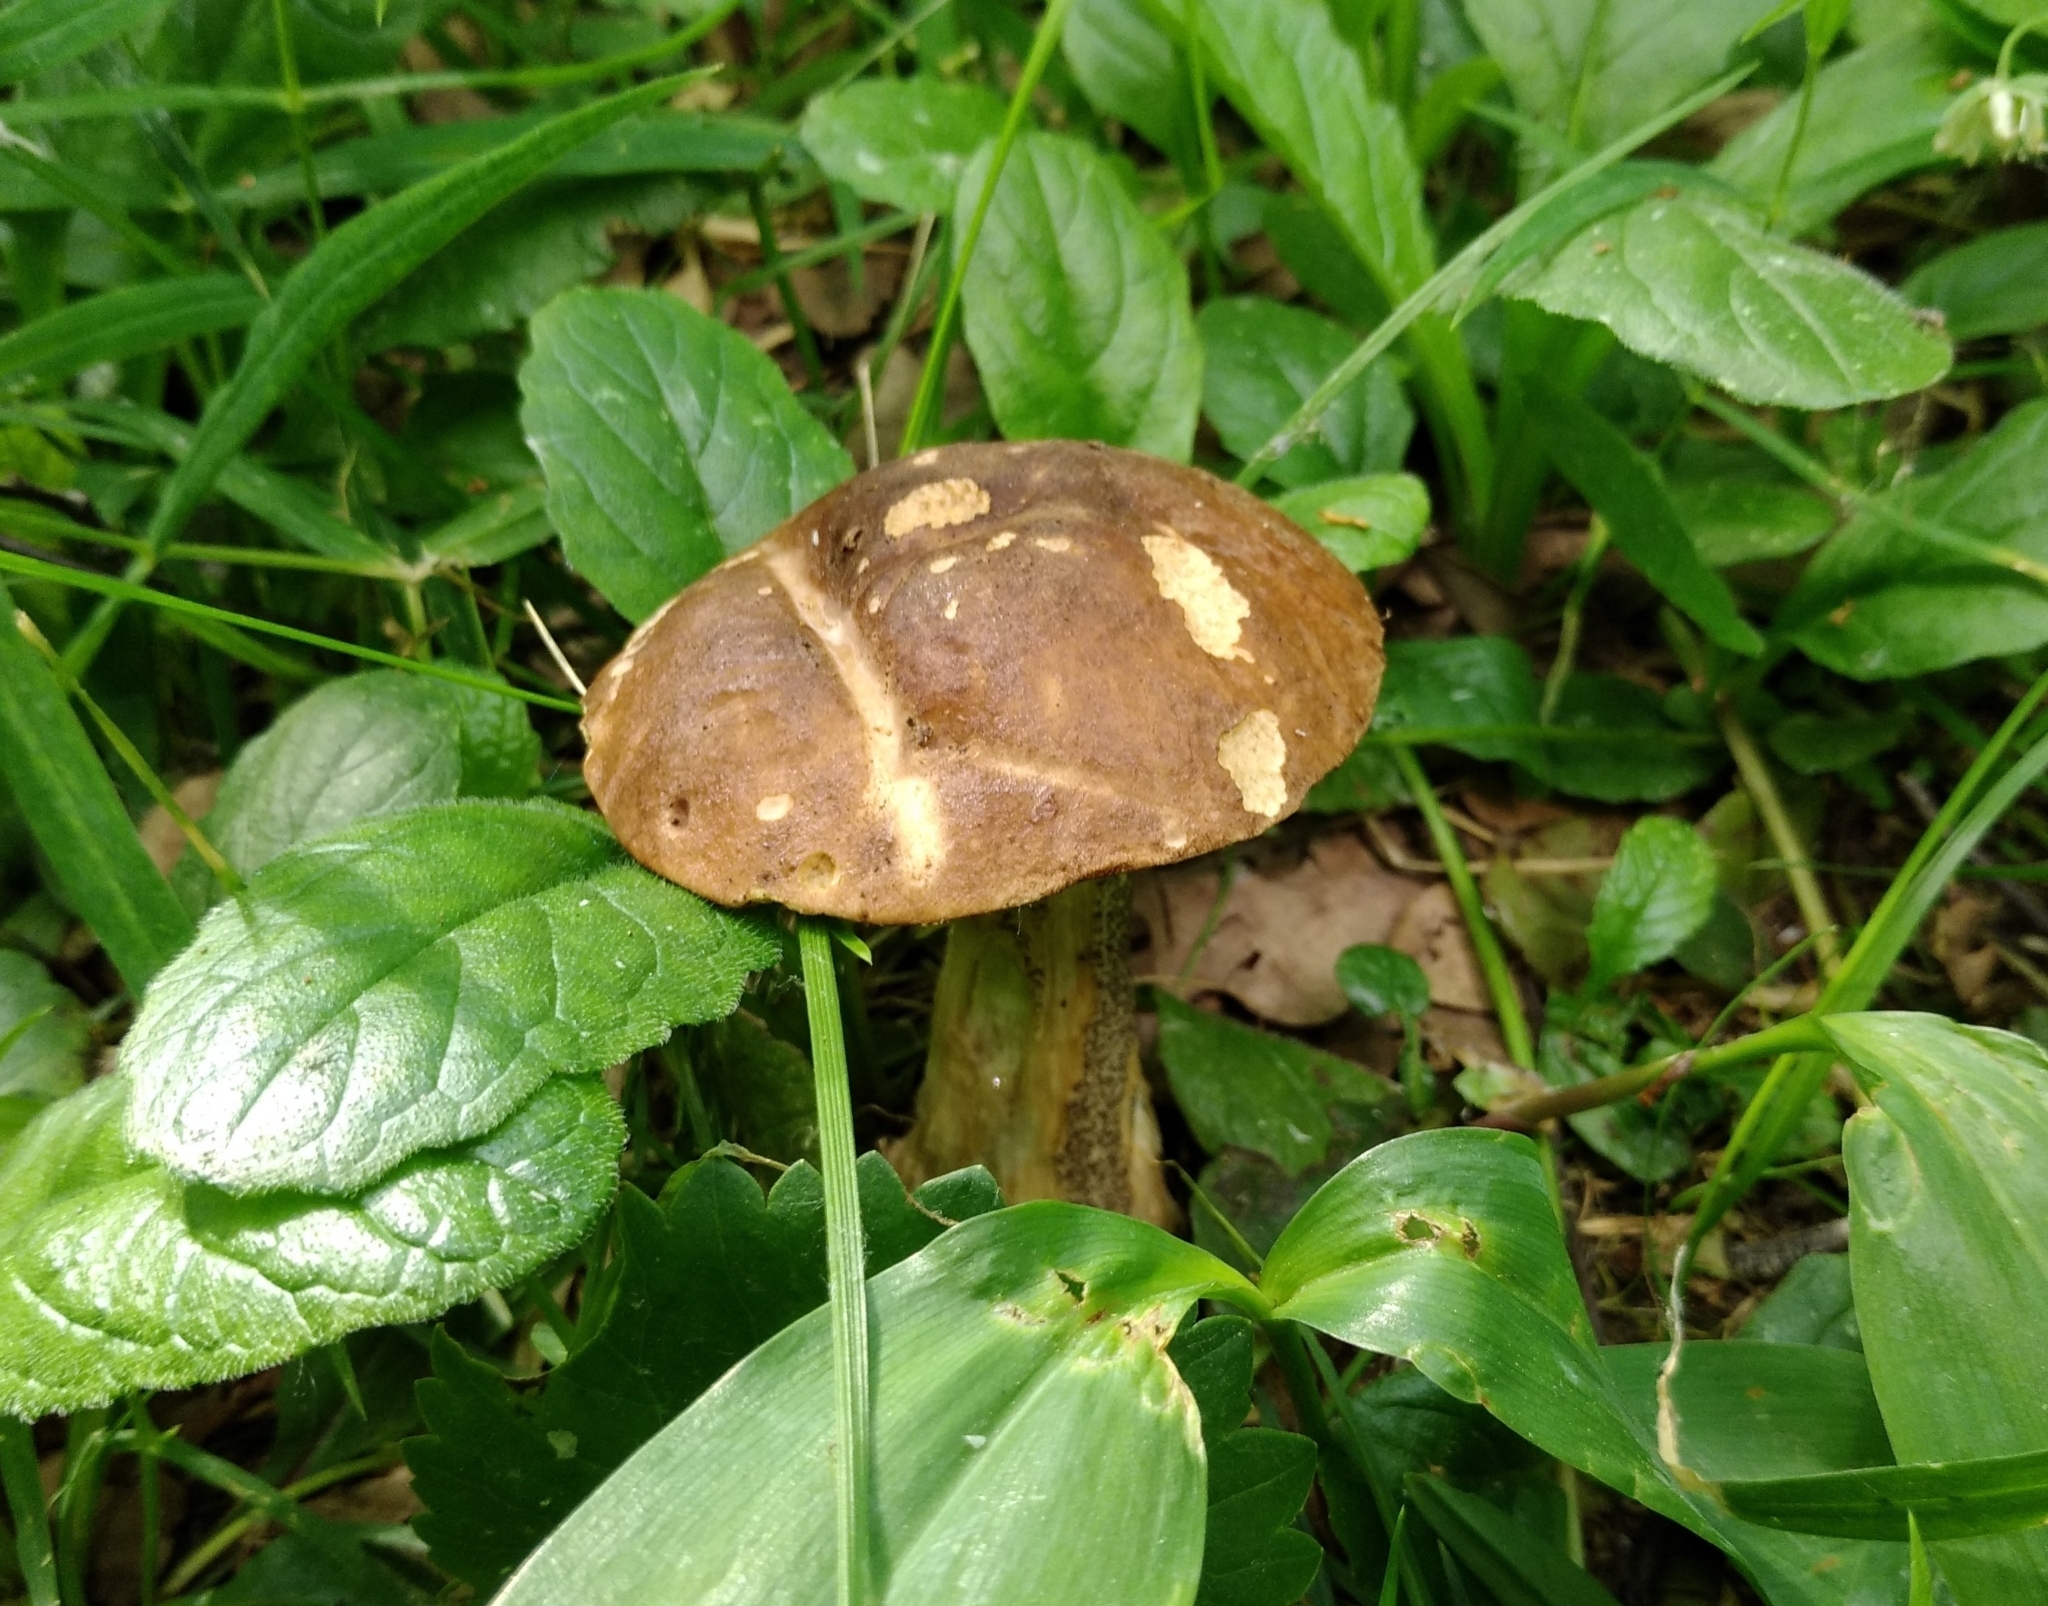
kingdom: Fungi
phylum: Basidiomycota
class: Agaricomycetes
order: Boletales
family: Boletaceae
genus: Leccinum
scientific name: Leccinum scabrum
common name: Blushing bolete
